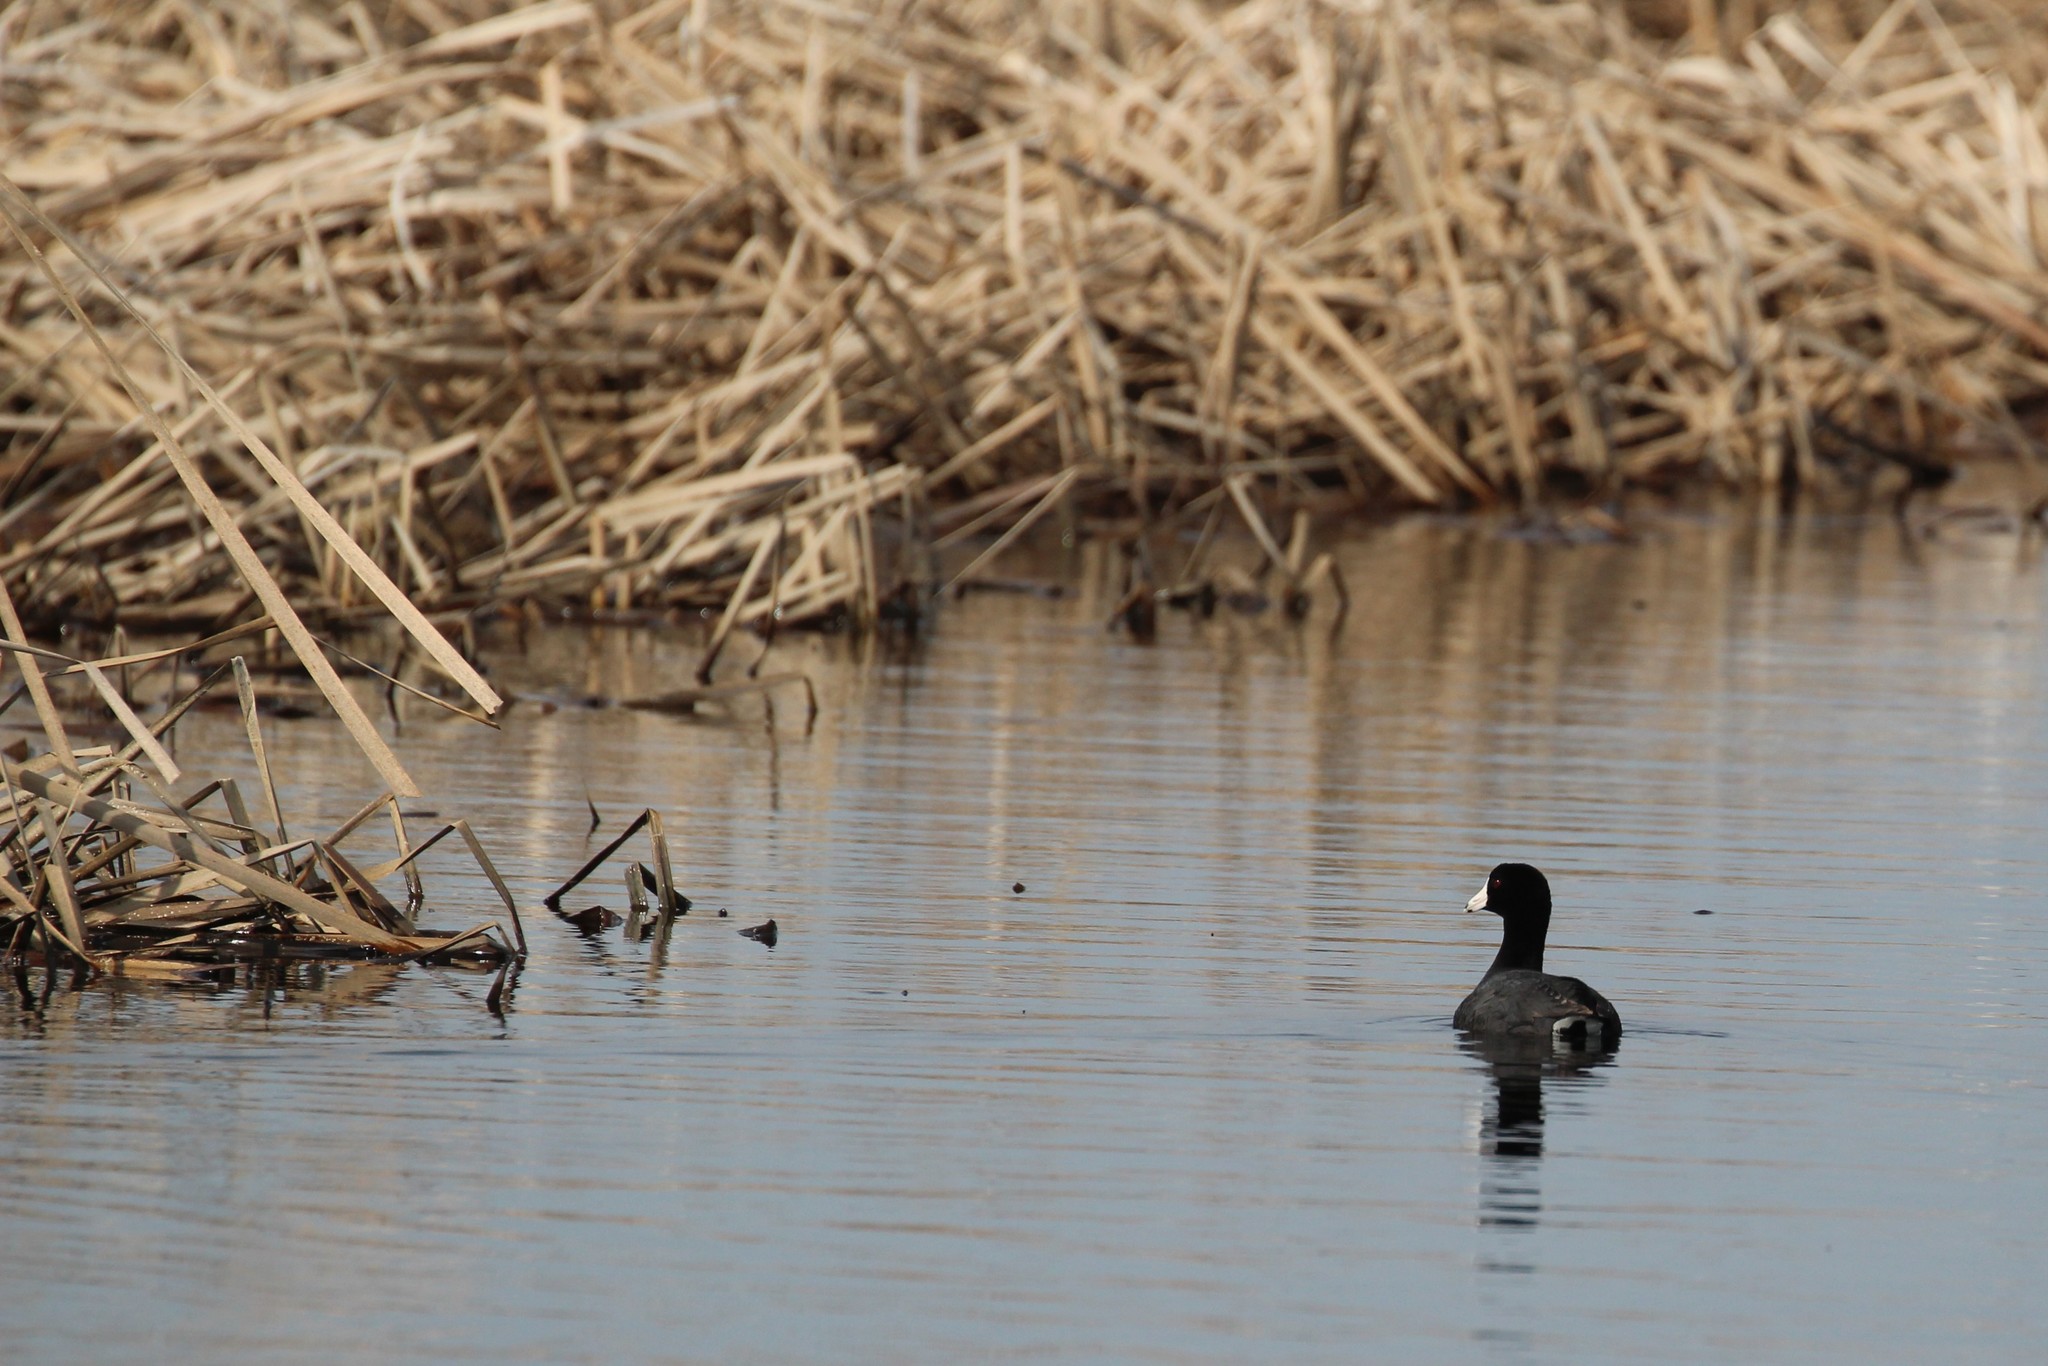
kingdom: Animalia
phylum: Chordata
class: Aves
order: Gruiformes
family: Rallidae
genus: Fulica
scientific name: Fulica americana
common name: American coot
